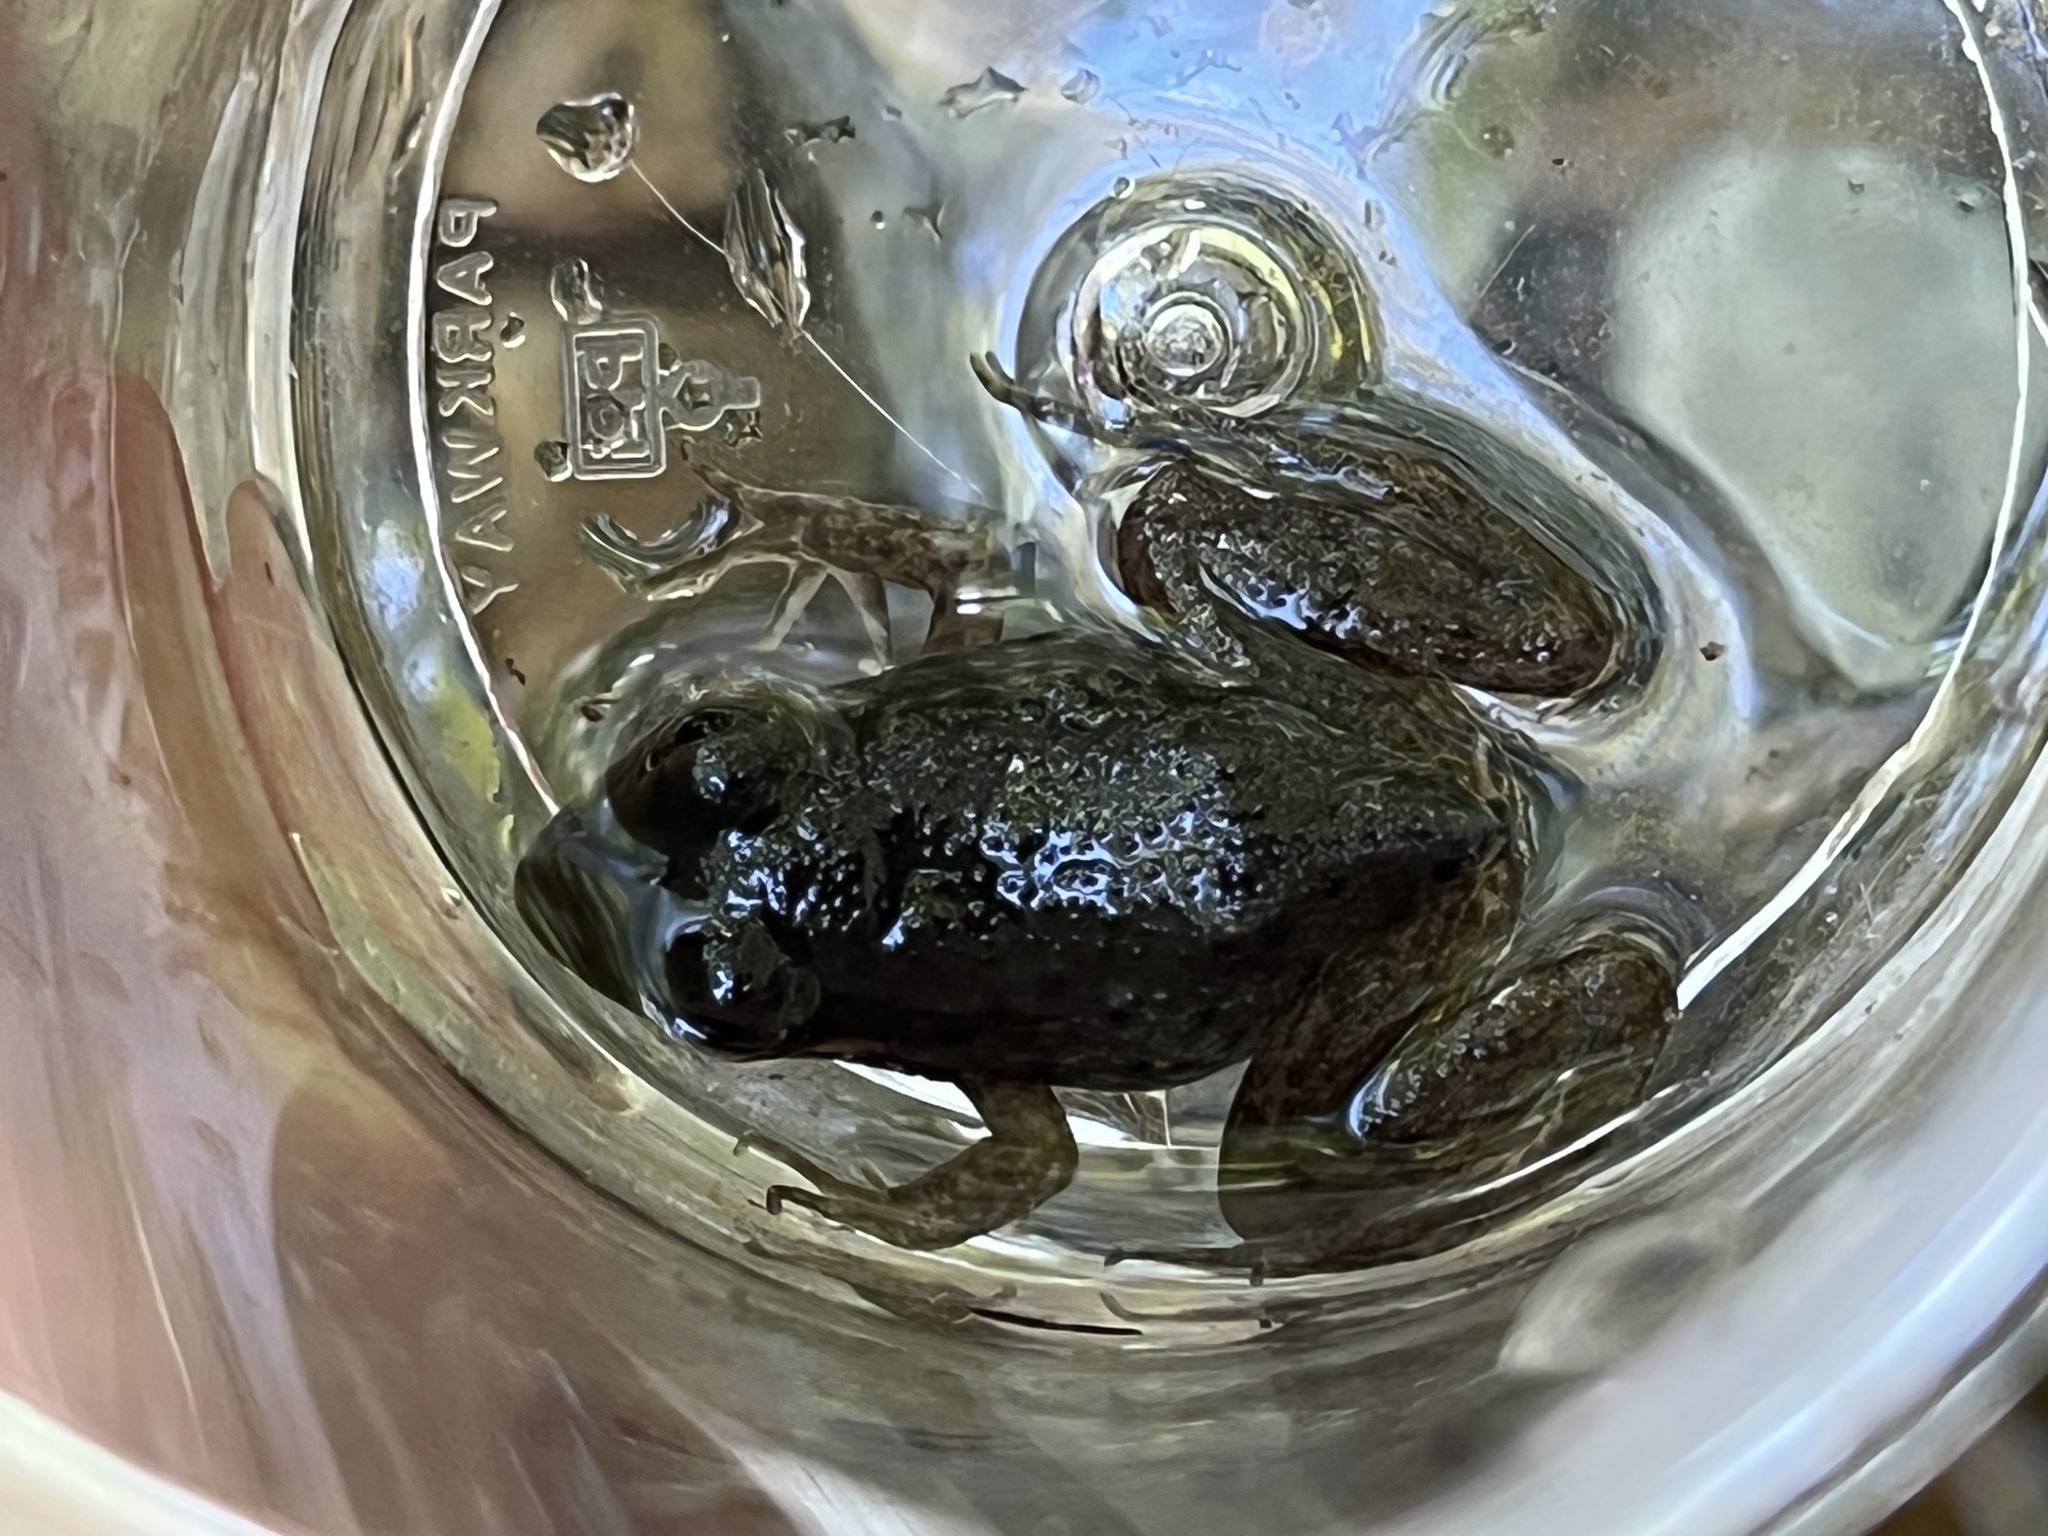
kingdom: Animalia
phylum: Chordata
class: Amphibia
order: Anura
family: Ranidae
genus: Lithobates
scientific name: Lithobates catesbeianus
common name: American bullfrog
